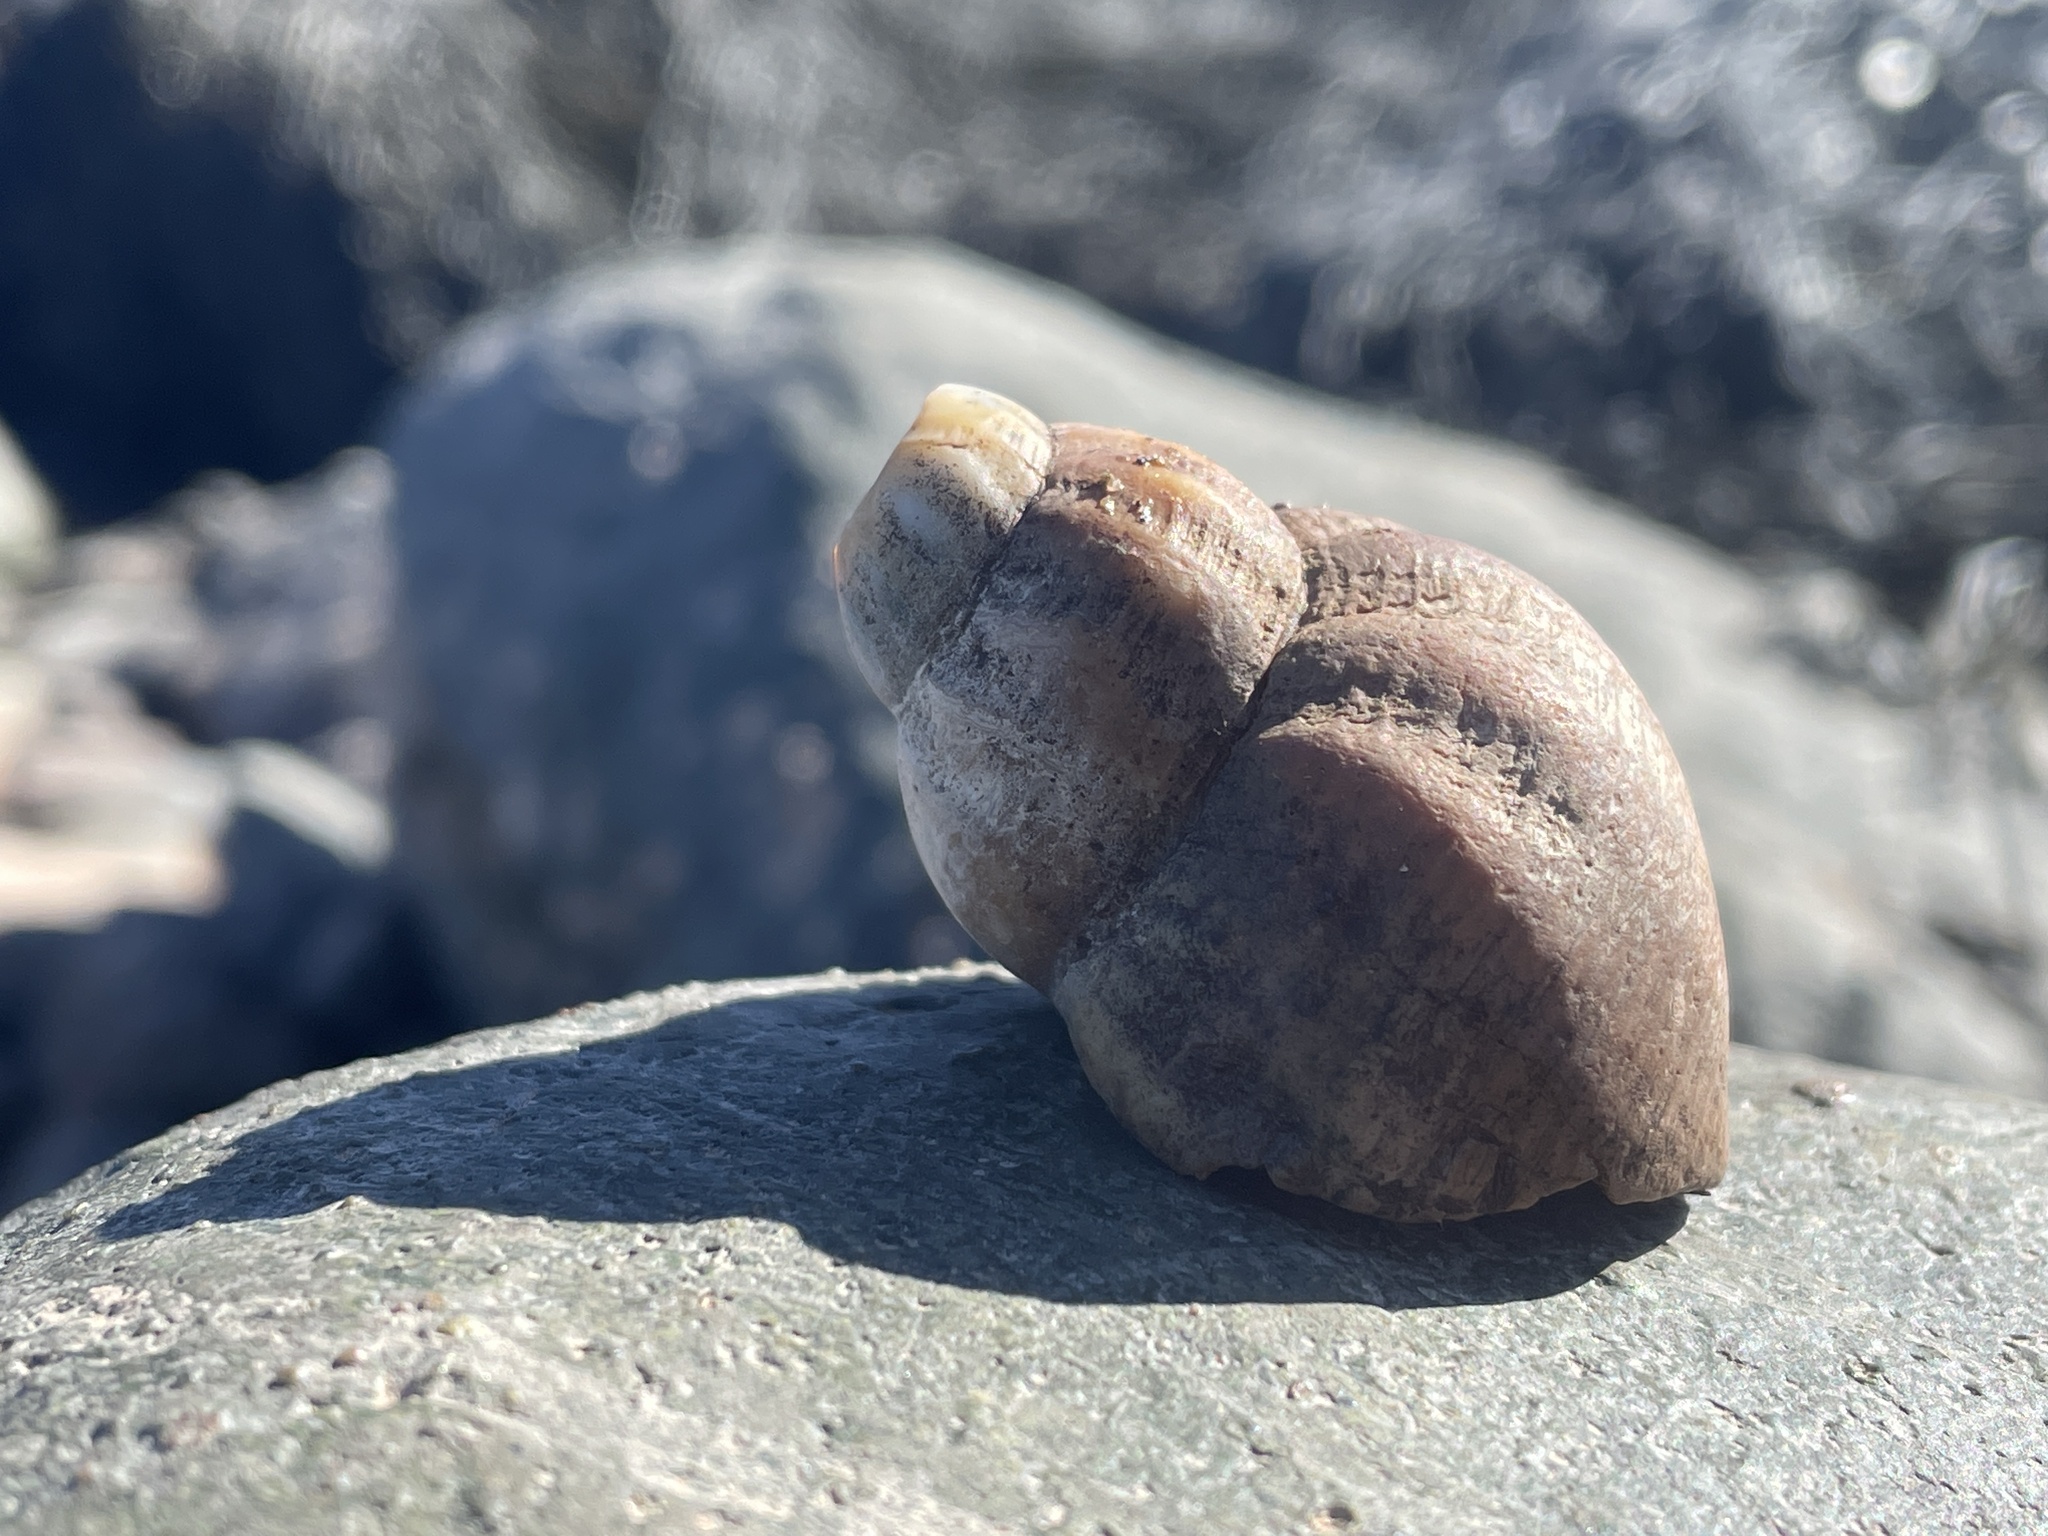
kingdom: Animalia
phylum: Mollusca
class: Gastropoda
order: Neogastropoda
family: Buccinidae
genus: Buccinum
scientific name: Buccinum undatum
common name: Common whelk
